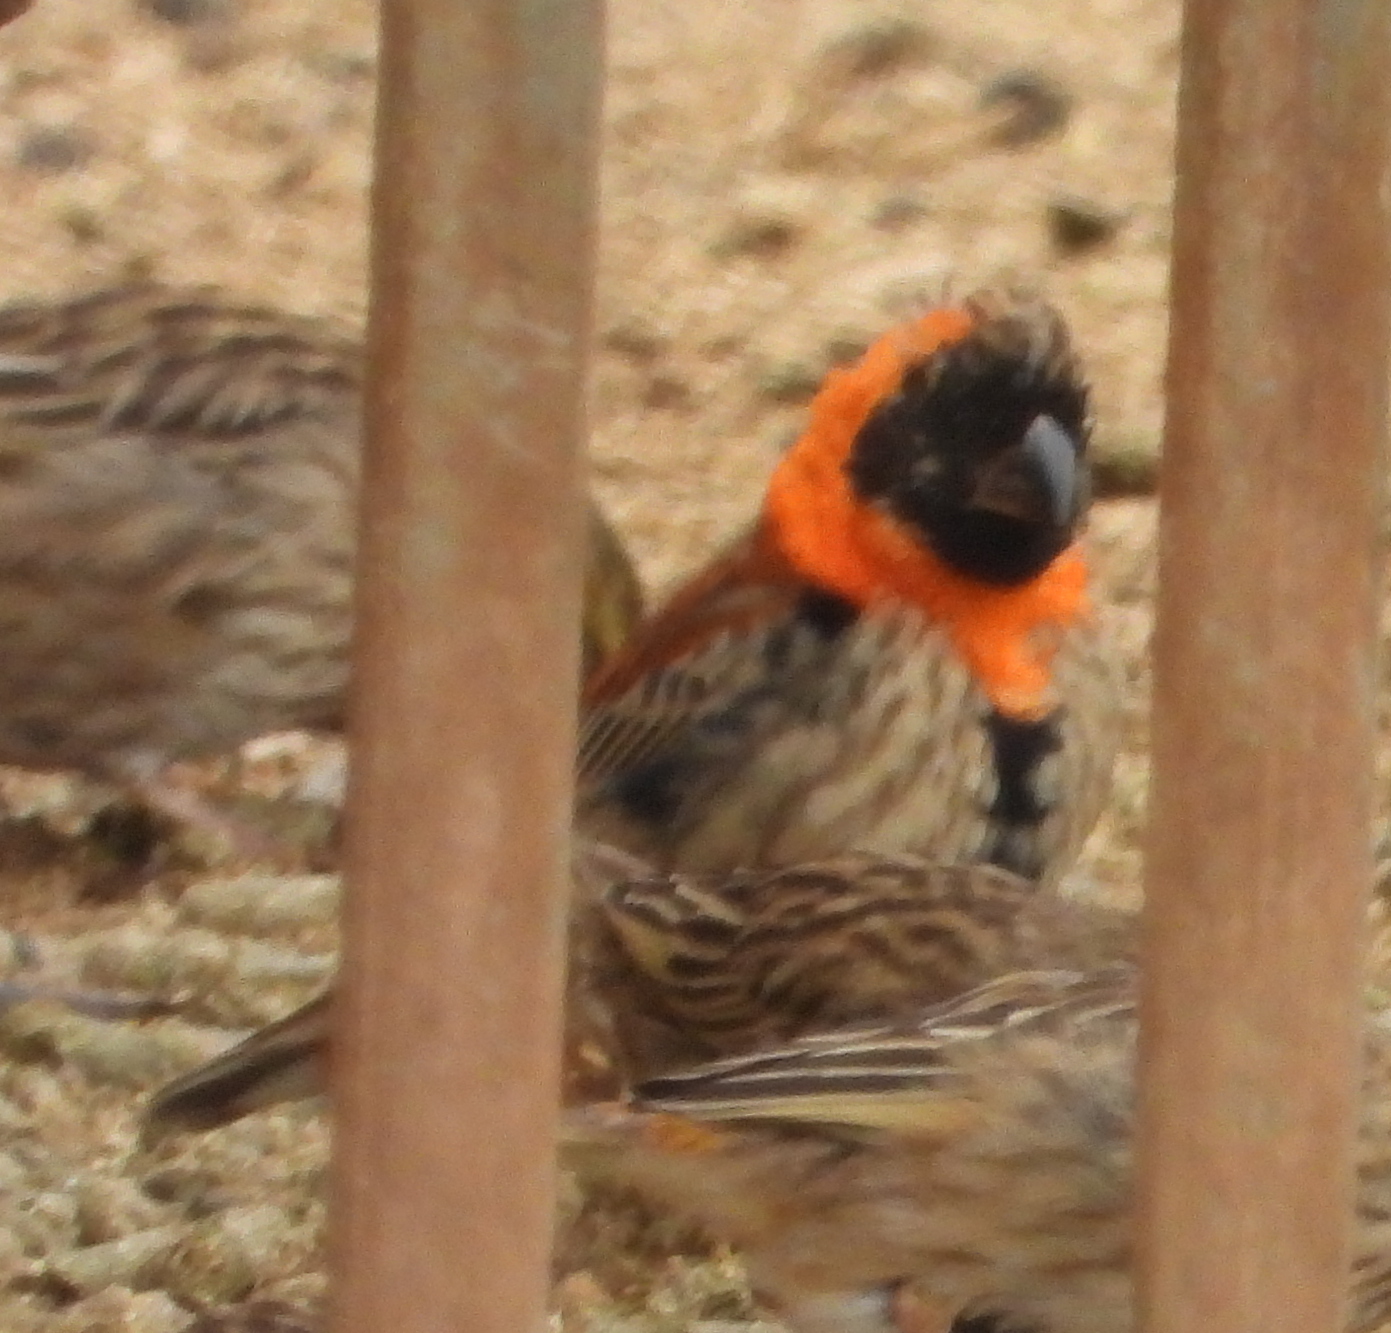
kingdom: Animalia
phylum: Chordata
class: Aves
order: Passeriformes
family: Ploceidae
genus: Euplectes
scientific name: Euplectes orix
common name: Southern red bishop
